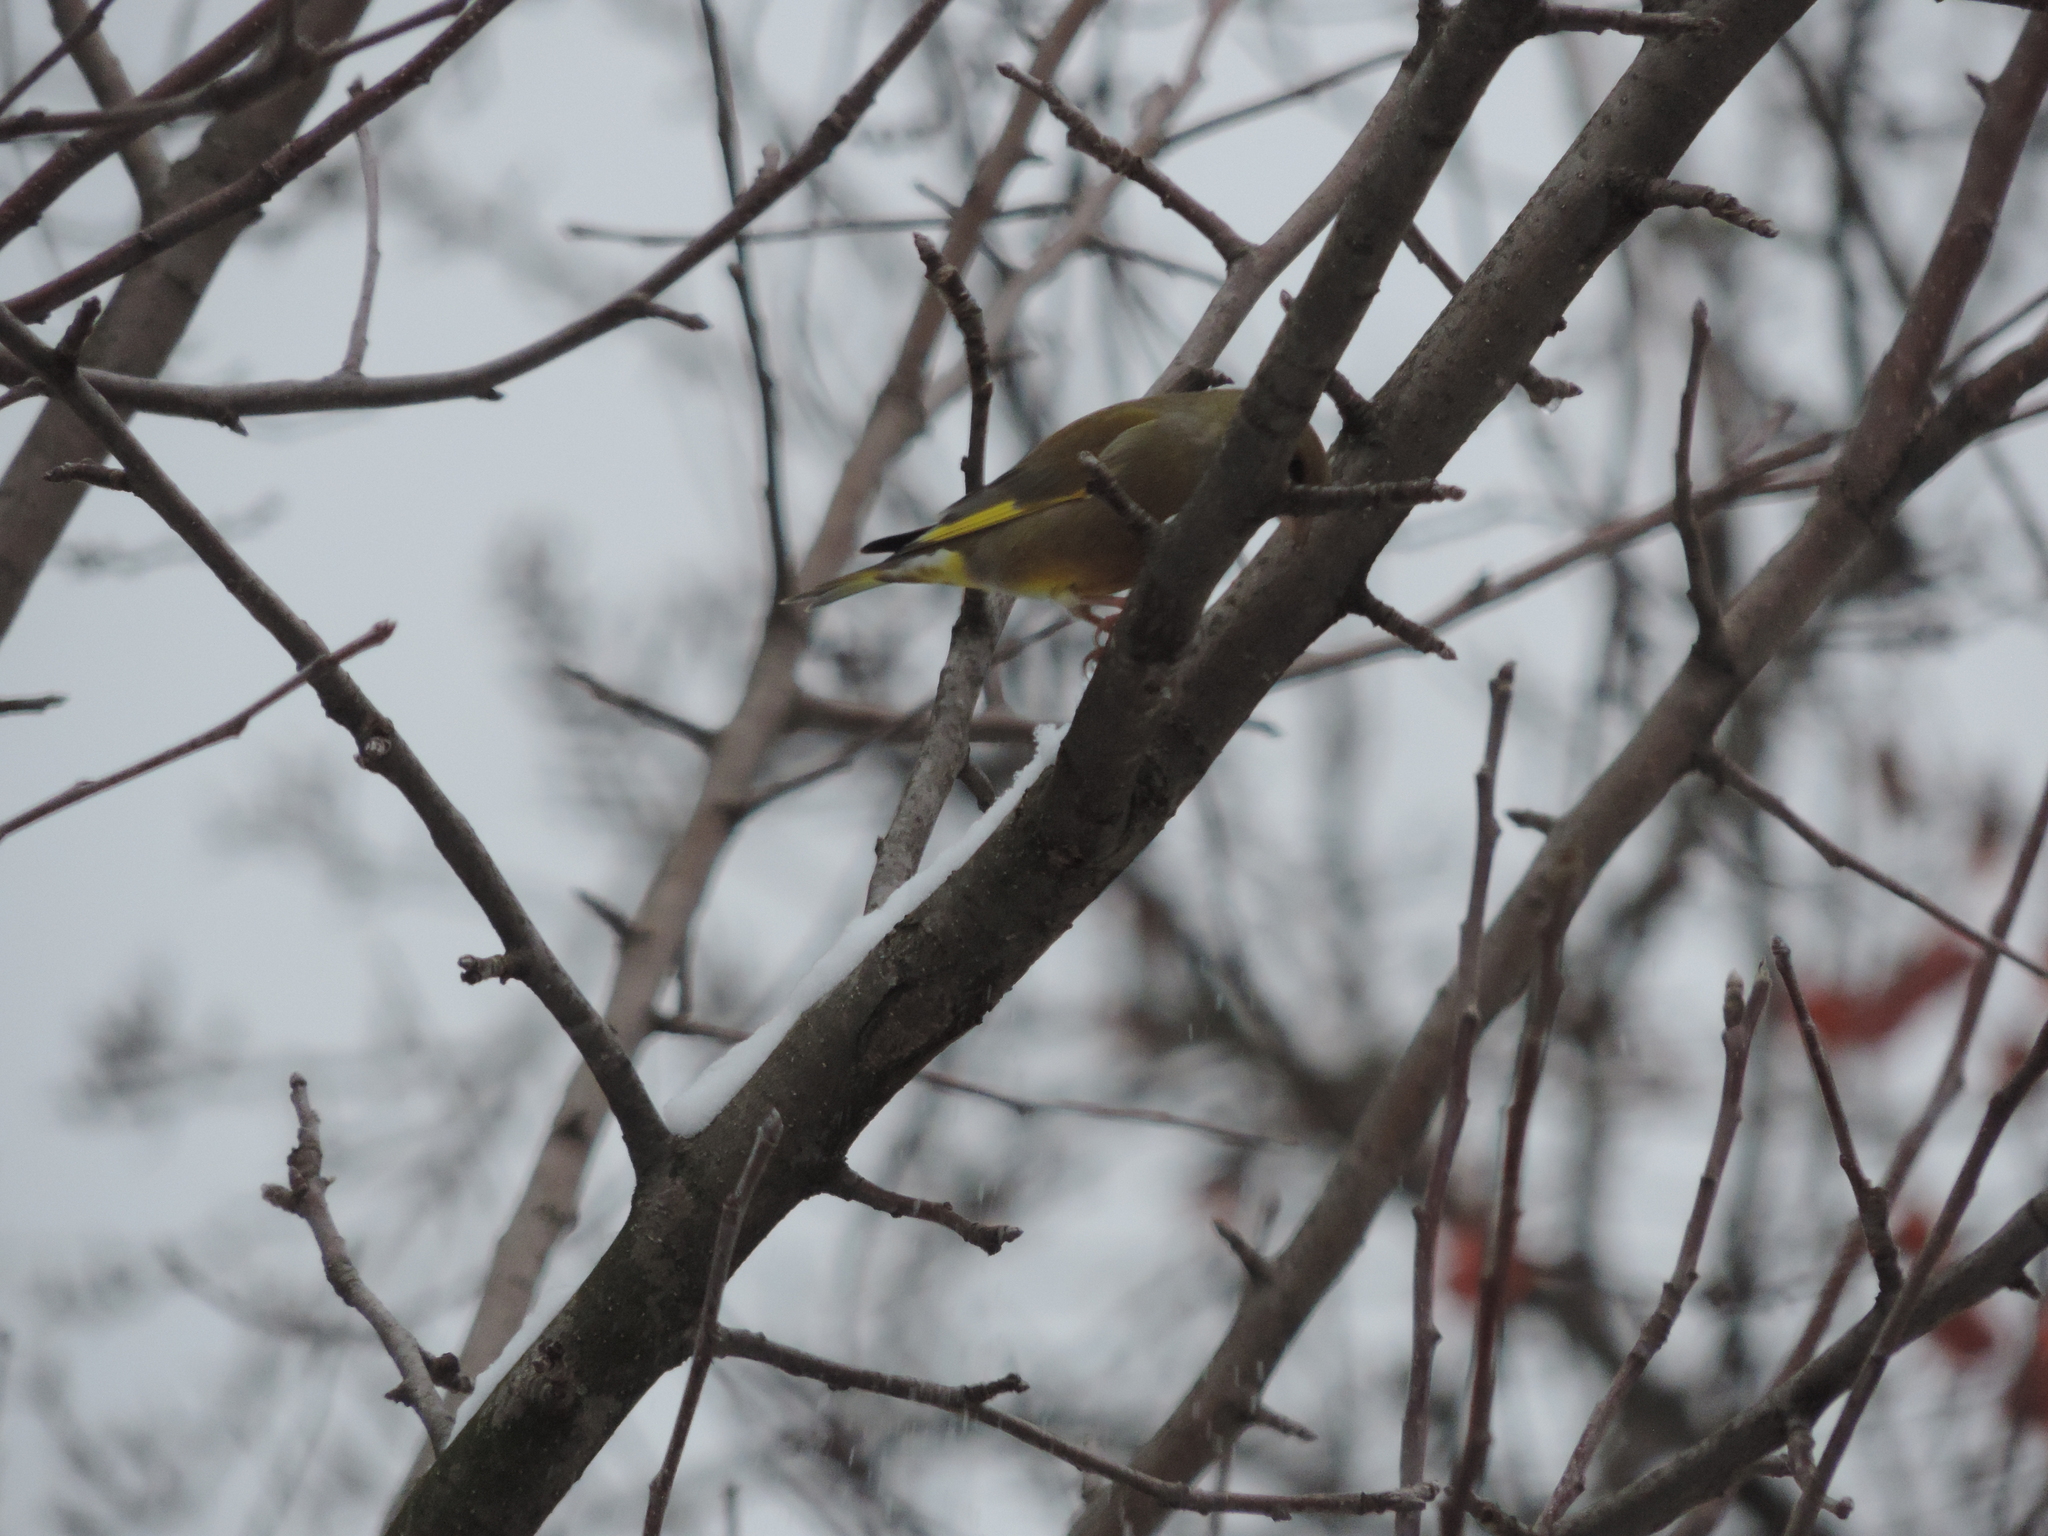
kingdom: Plantae
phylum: Tracheophyta
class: Liliopsida
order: Poales
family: Poaceae
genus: Chloris
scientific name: Chloris chloris
